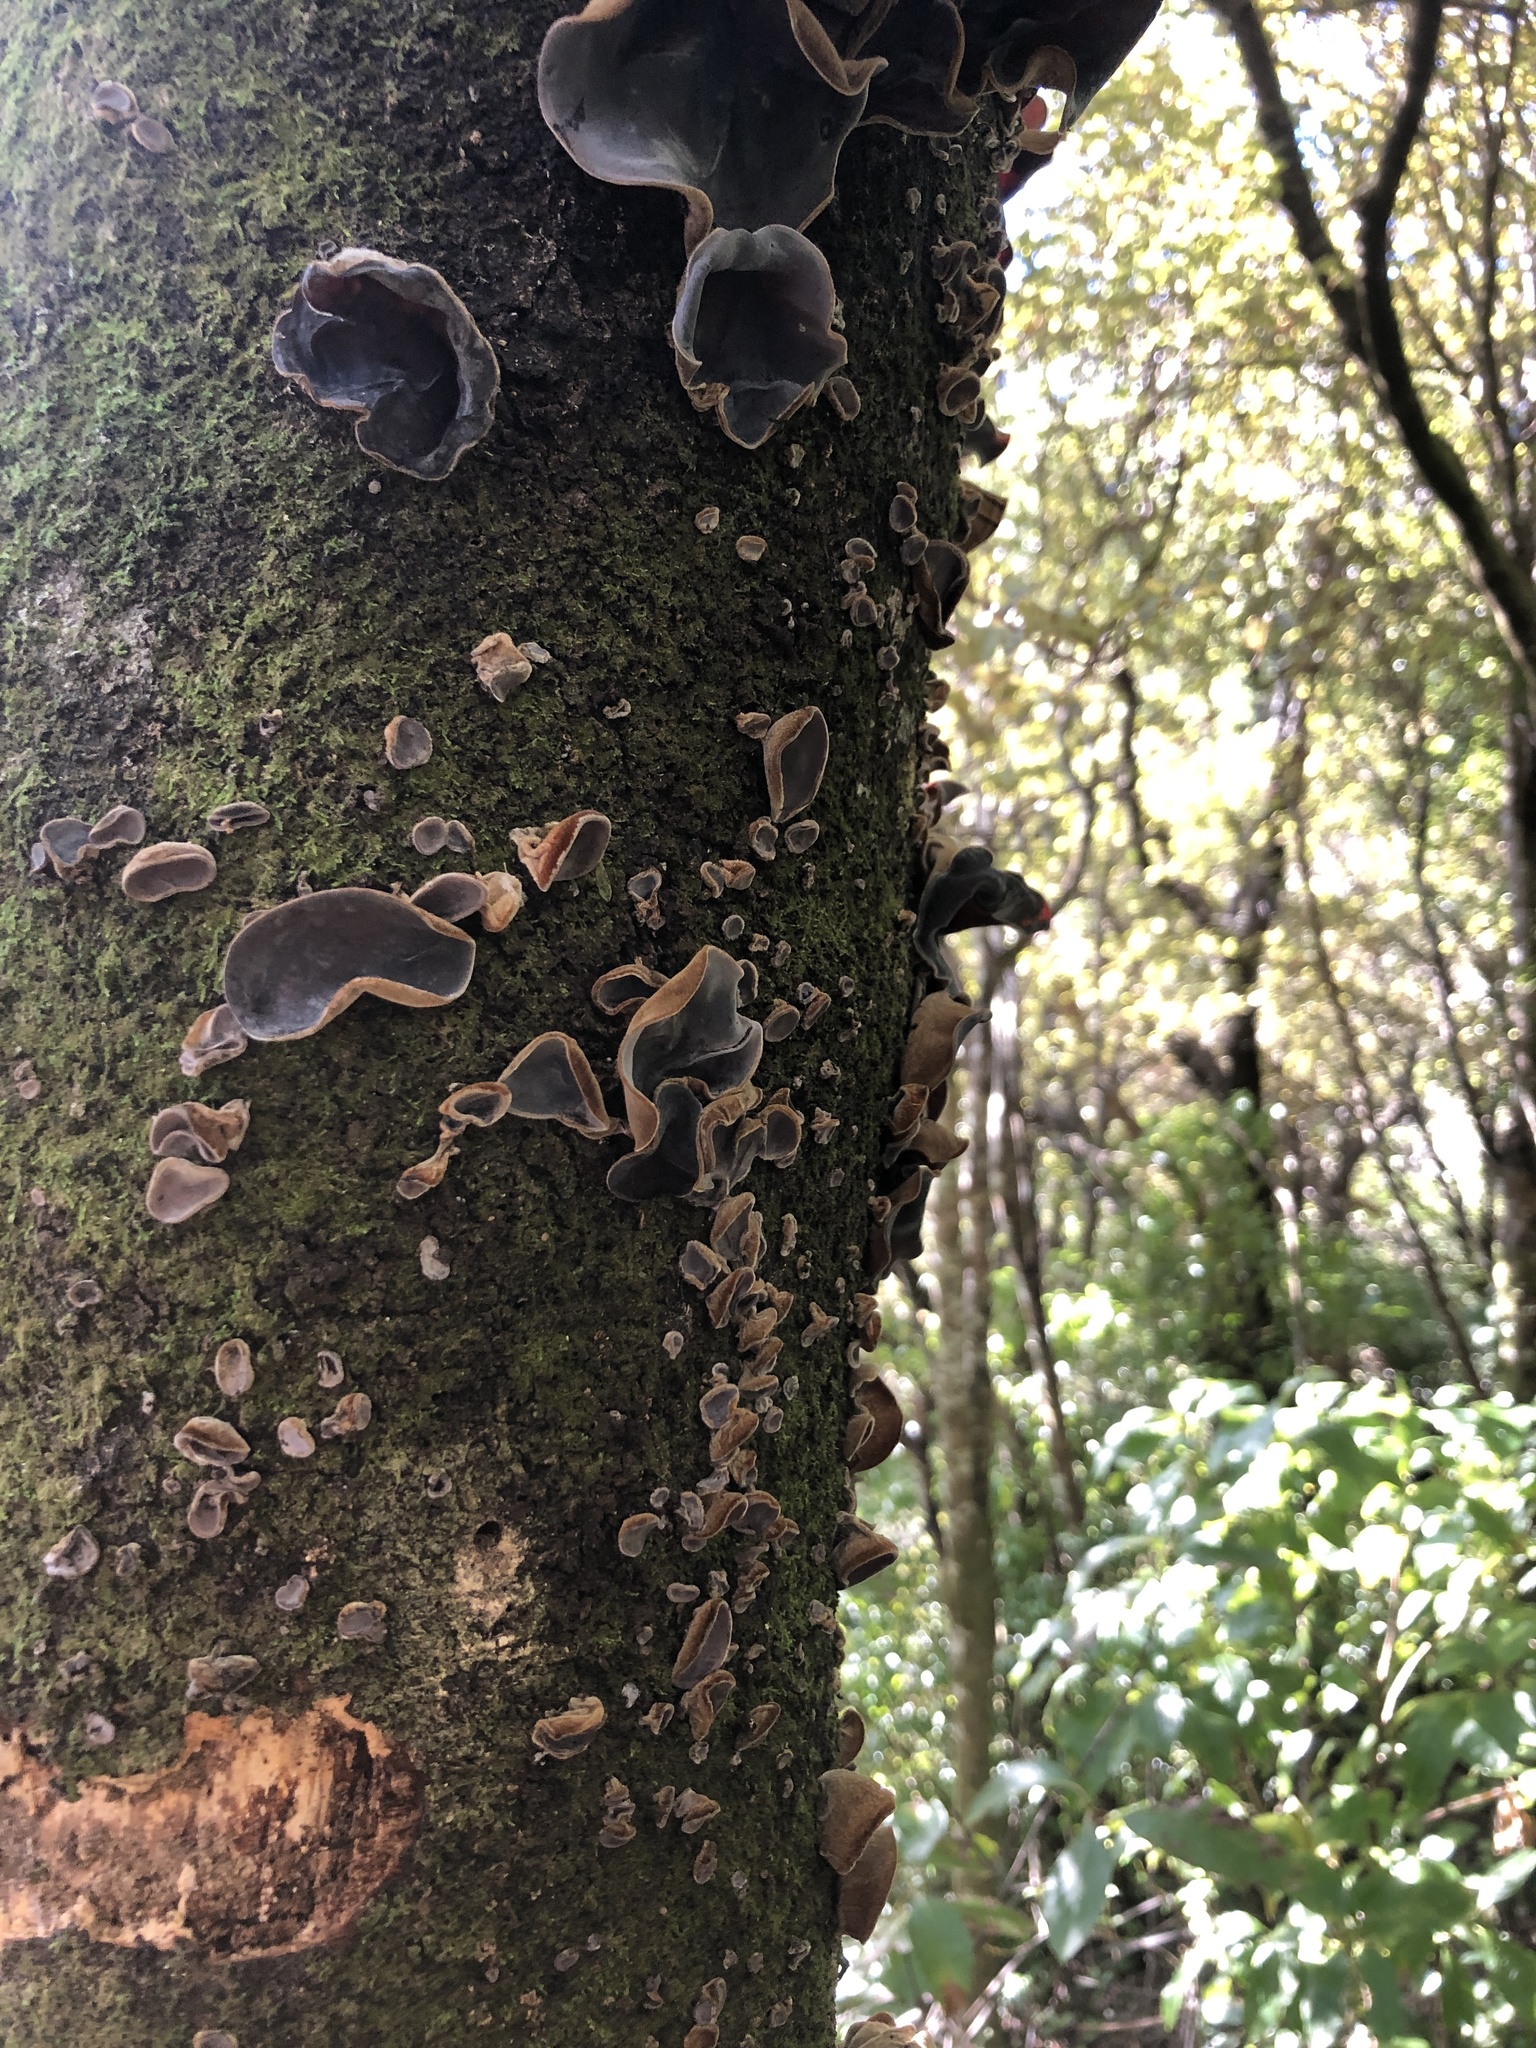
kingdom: Fungi
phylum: Basidiomycota
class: Agaricomycetes
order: Auriculariales
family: Auriculariaceae
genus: Auricularia
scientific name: Auricularia cornea
